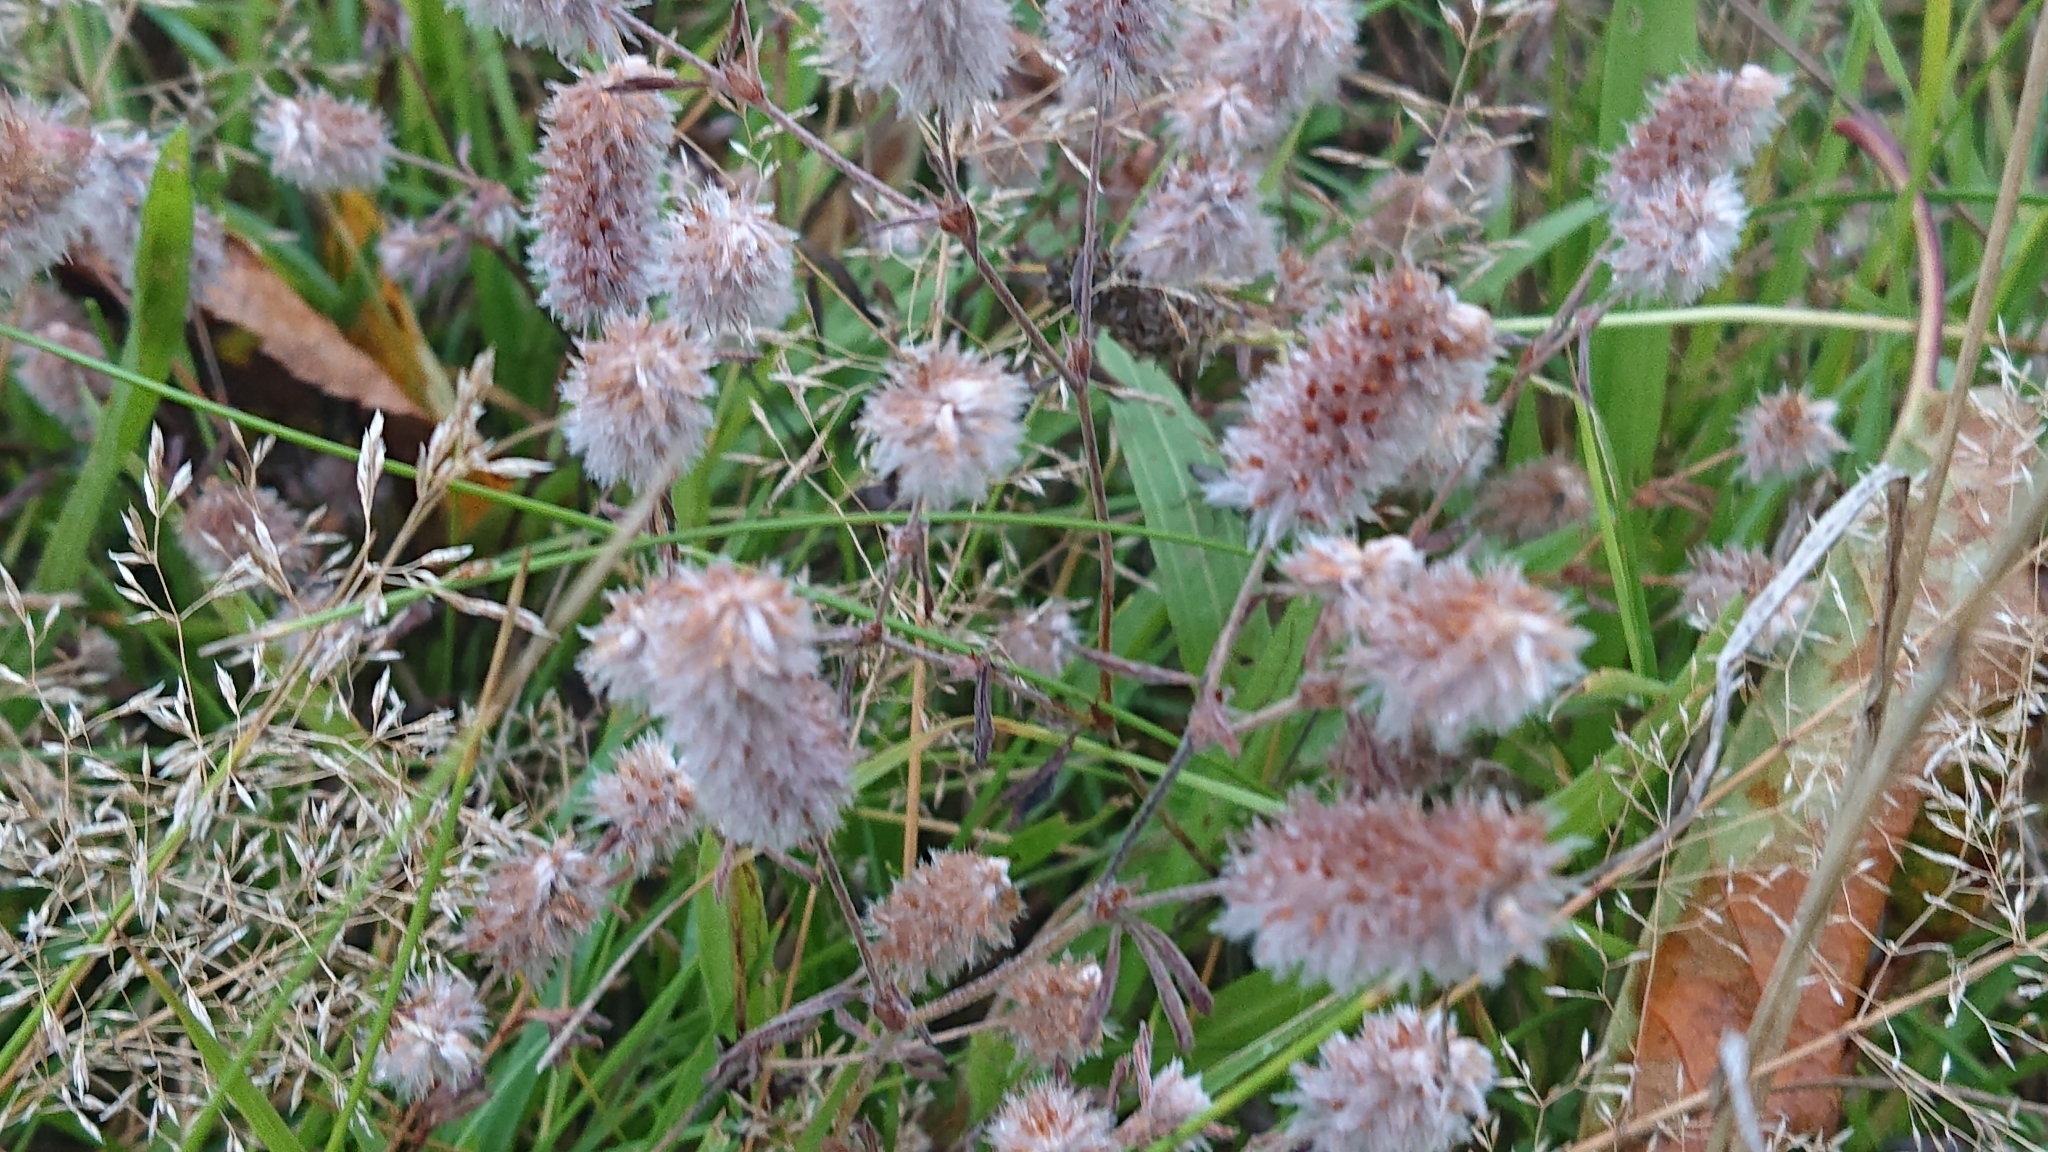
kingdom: Plantae
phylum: Tracheophyta
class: Magnoliopsida
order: Fabales
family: Fabaceae
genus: Trifolium
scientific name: Trifolium arvense
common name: Hare's-foot clover
